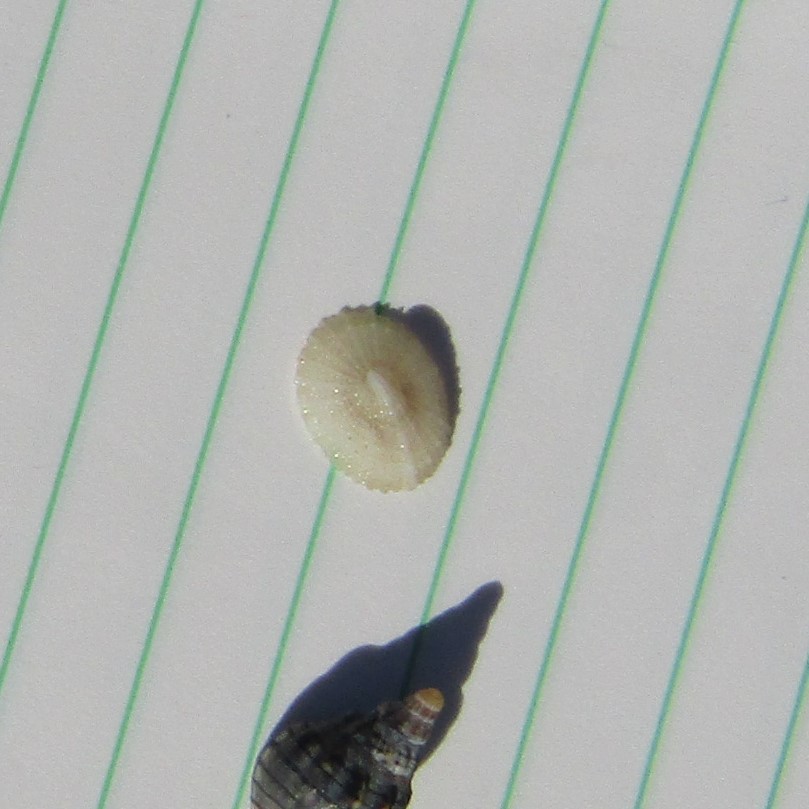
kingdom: Animalia
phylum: Mollusca
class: Gastropoda
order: Lepetellida
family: Fissurellidae
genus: Montfortula
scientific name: Montfortula chathamensis
